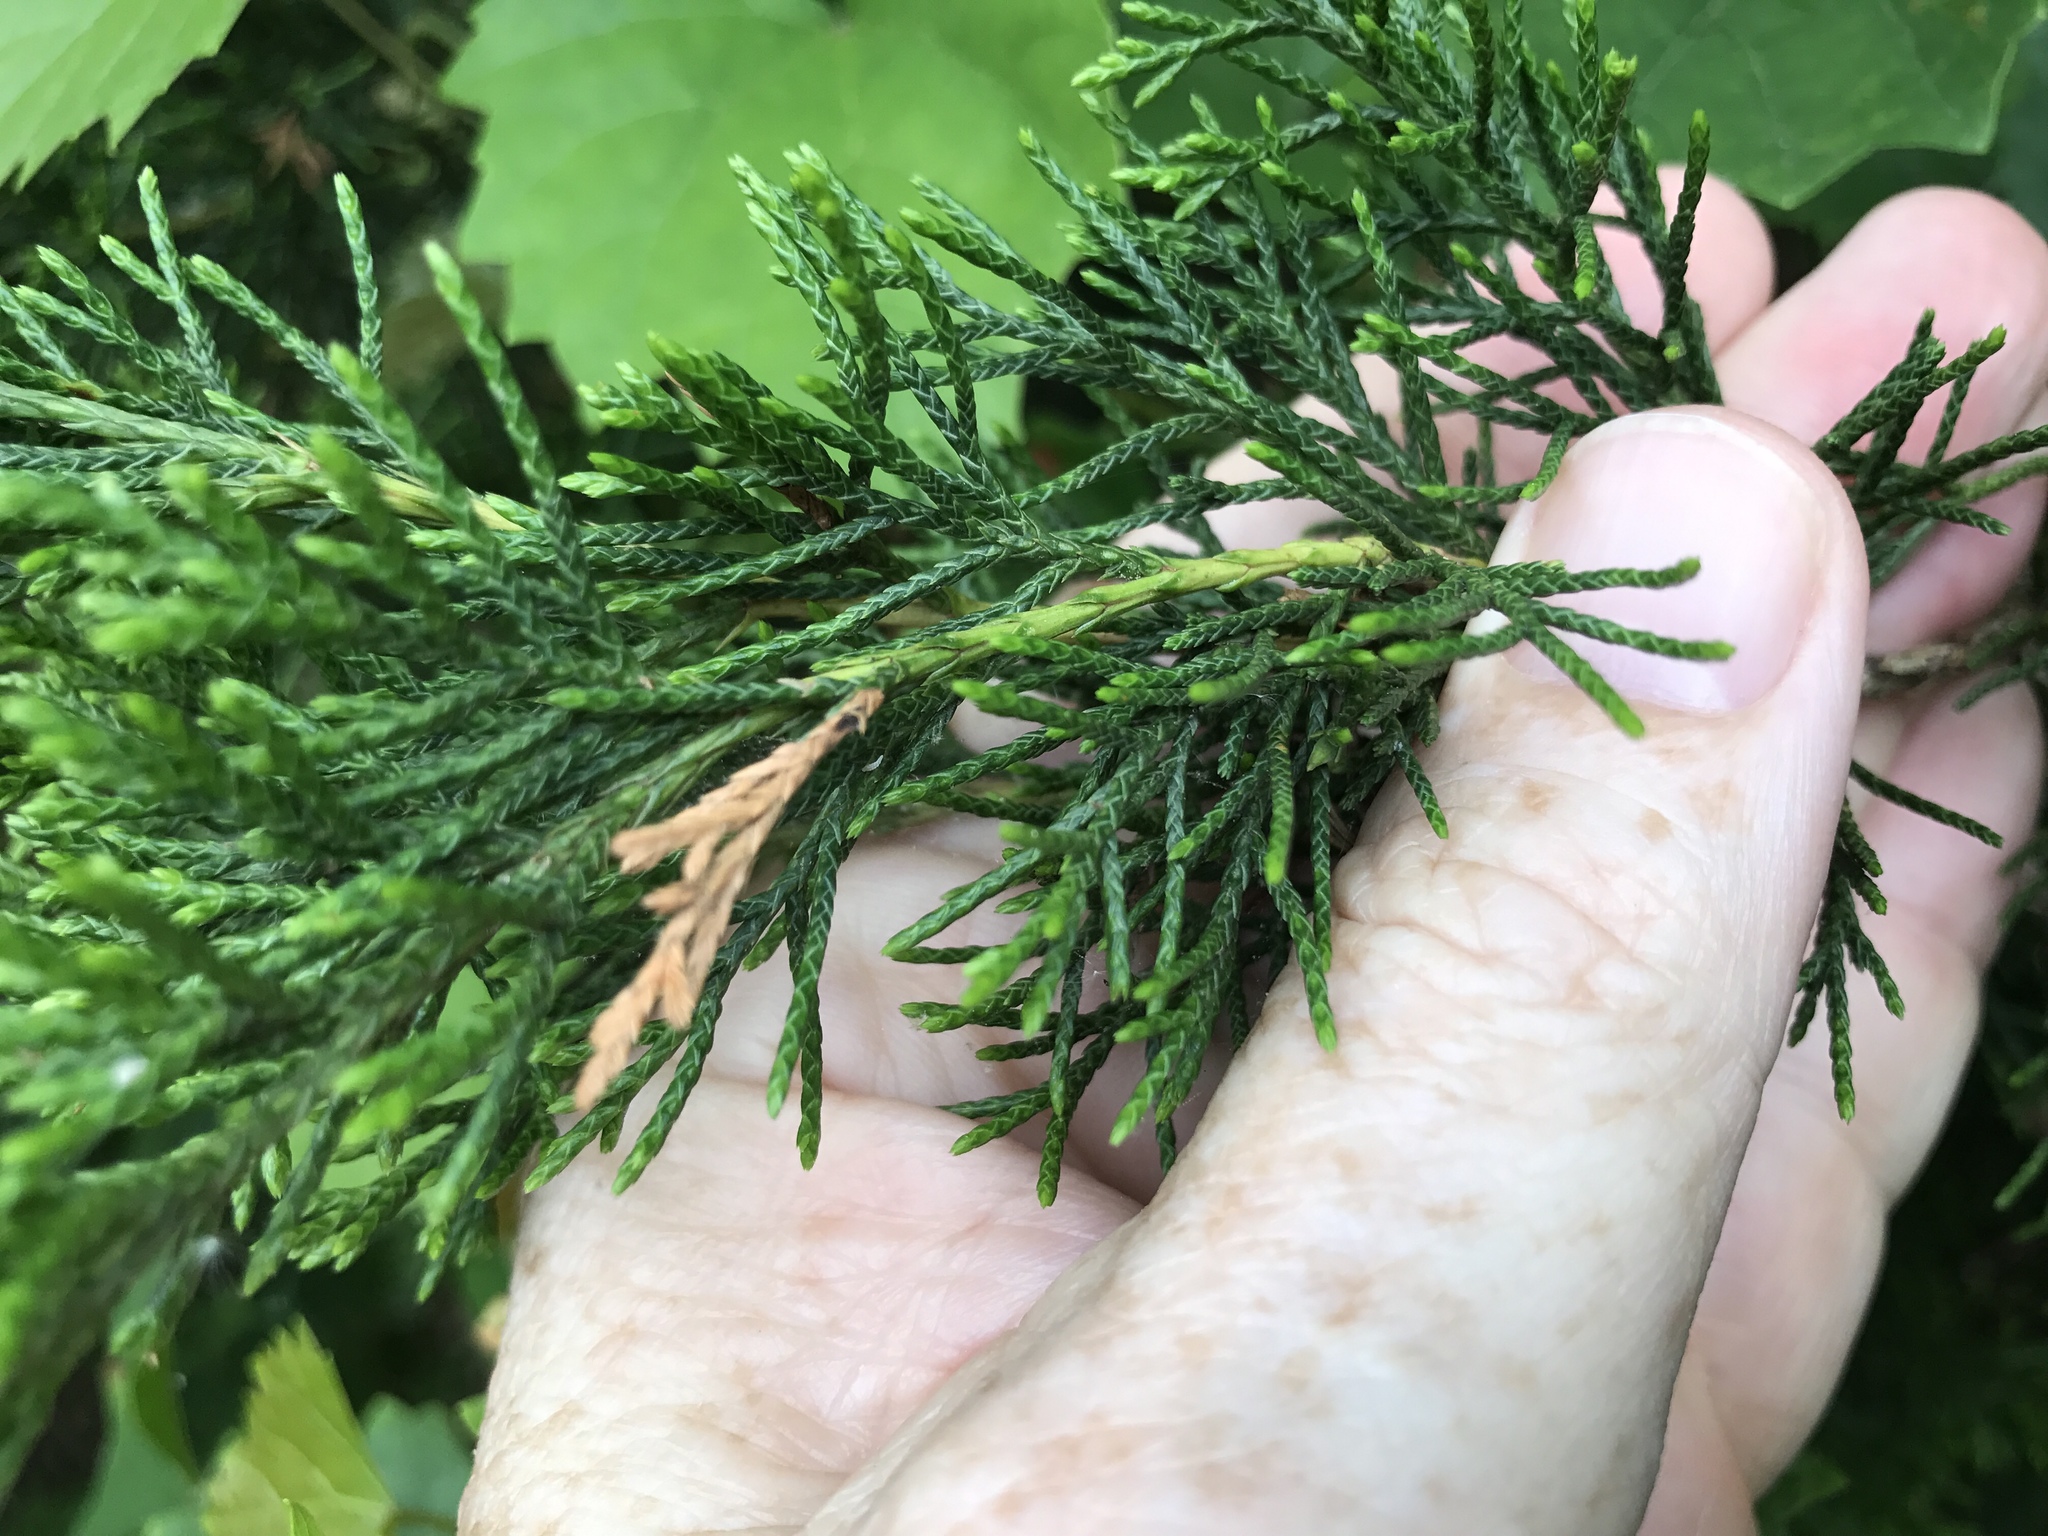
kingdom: Plantae
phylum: Tracheophyta
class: Pinopsida
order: Pinales
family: Cupressaceae
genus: Juniperus
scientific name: Juniperus virginiana
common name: Red juniper
